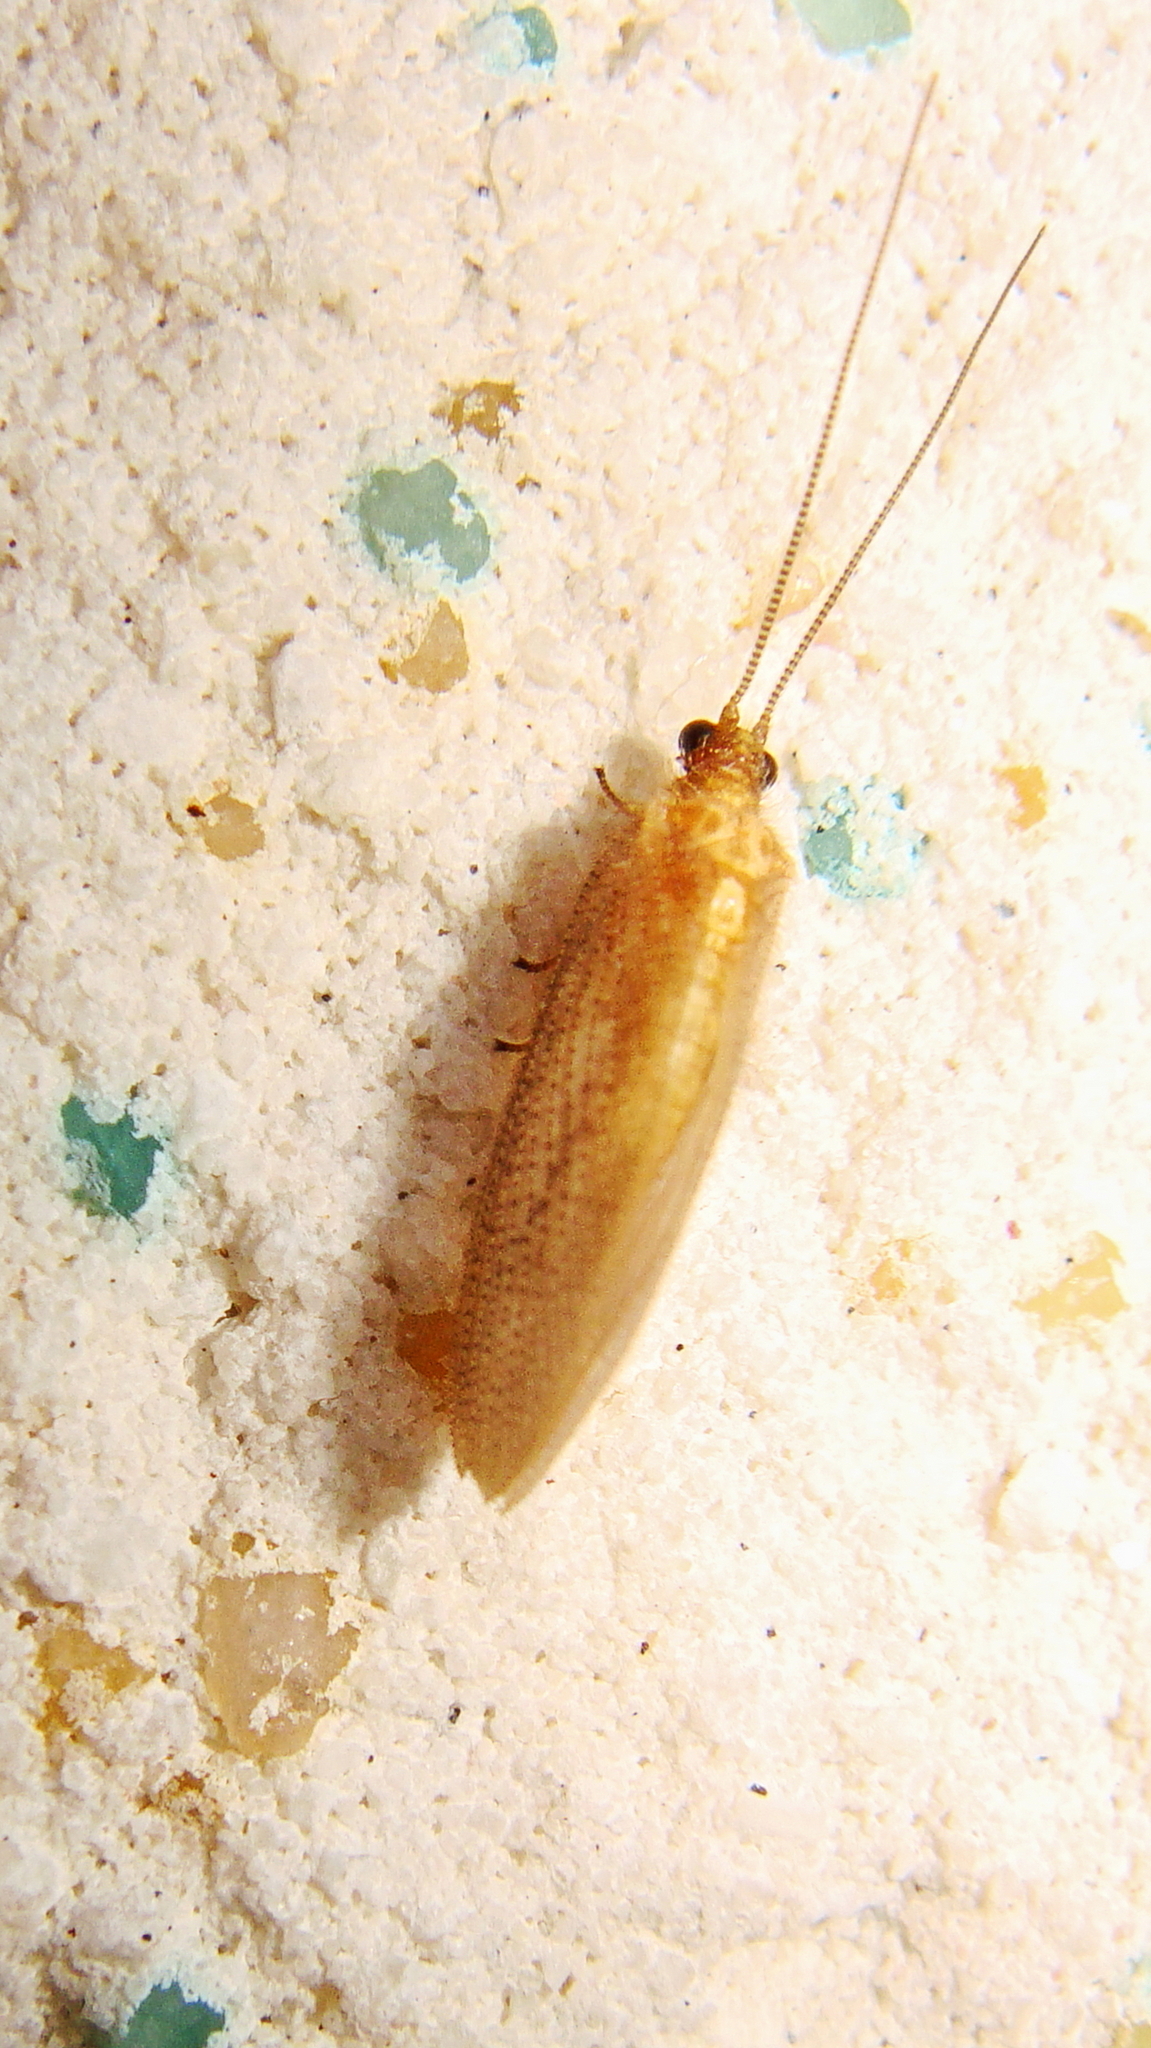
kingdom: Animalia
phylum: Arthropoda
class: Insecta
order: Neuroptera
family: Hemerobiidae
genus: Hemerobius
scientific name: Hemerobius nitidulus
